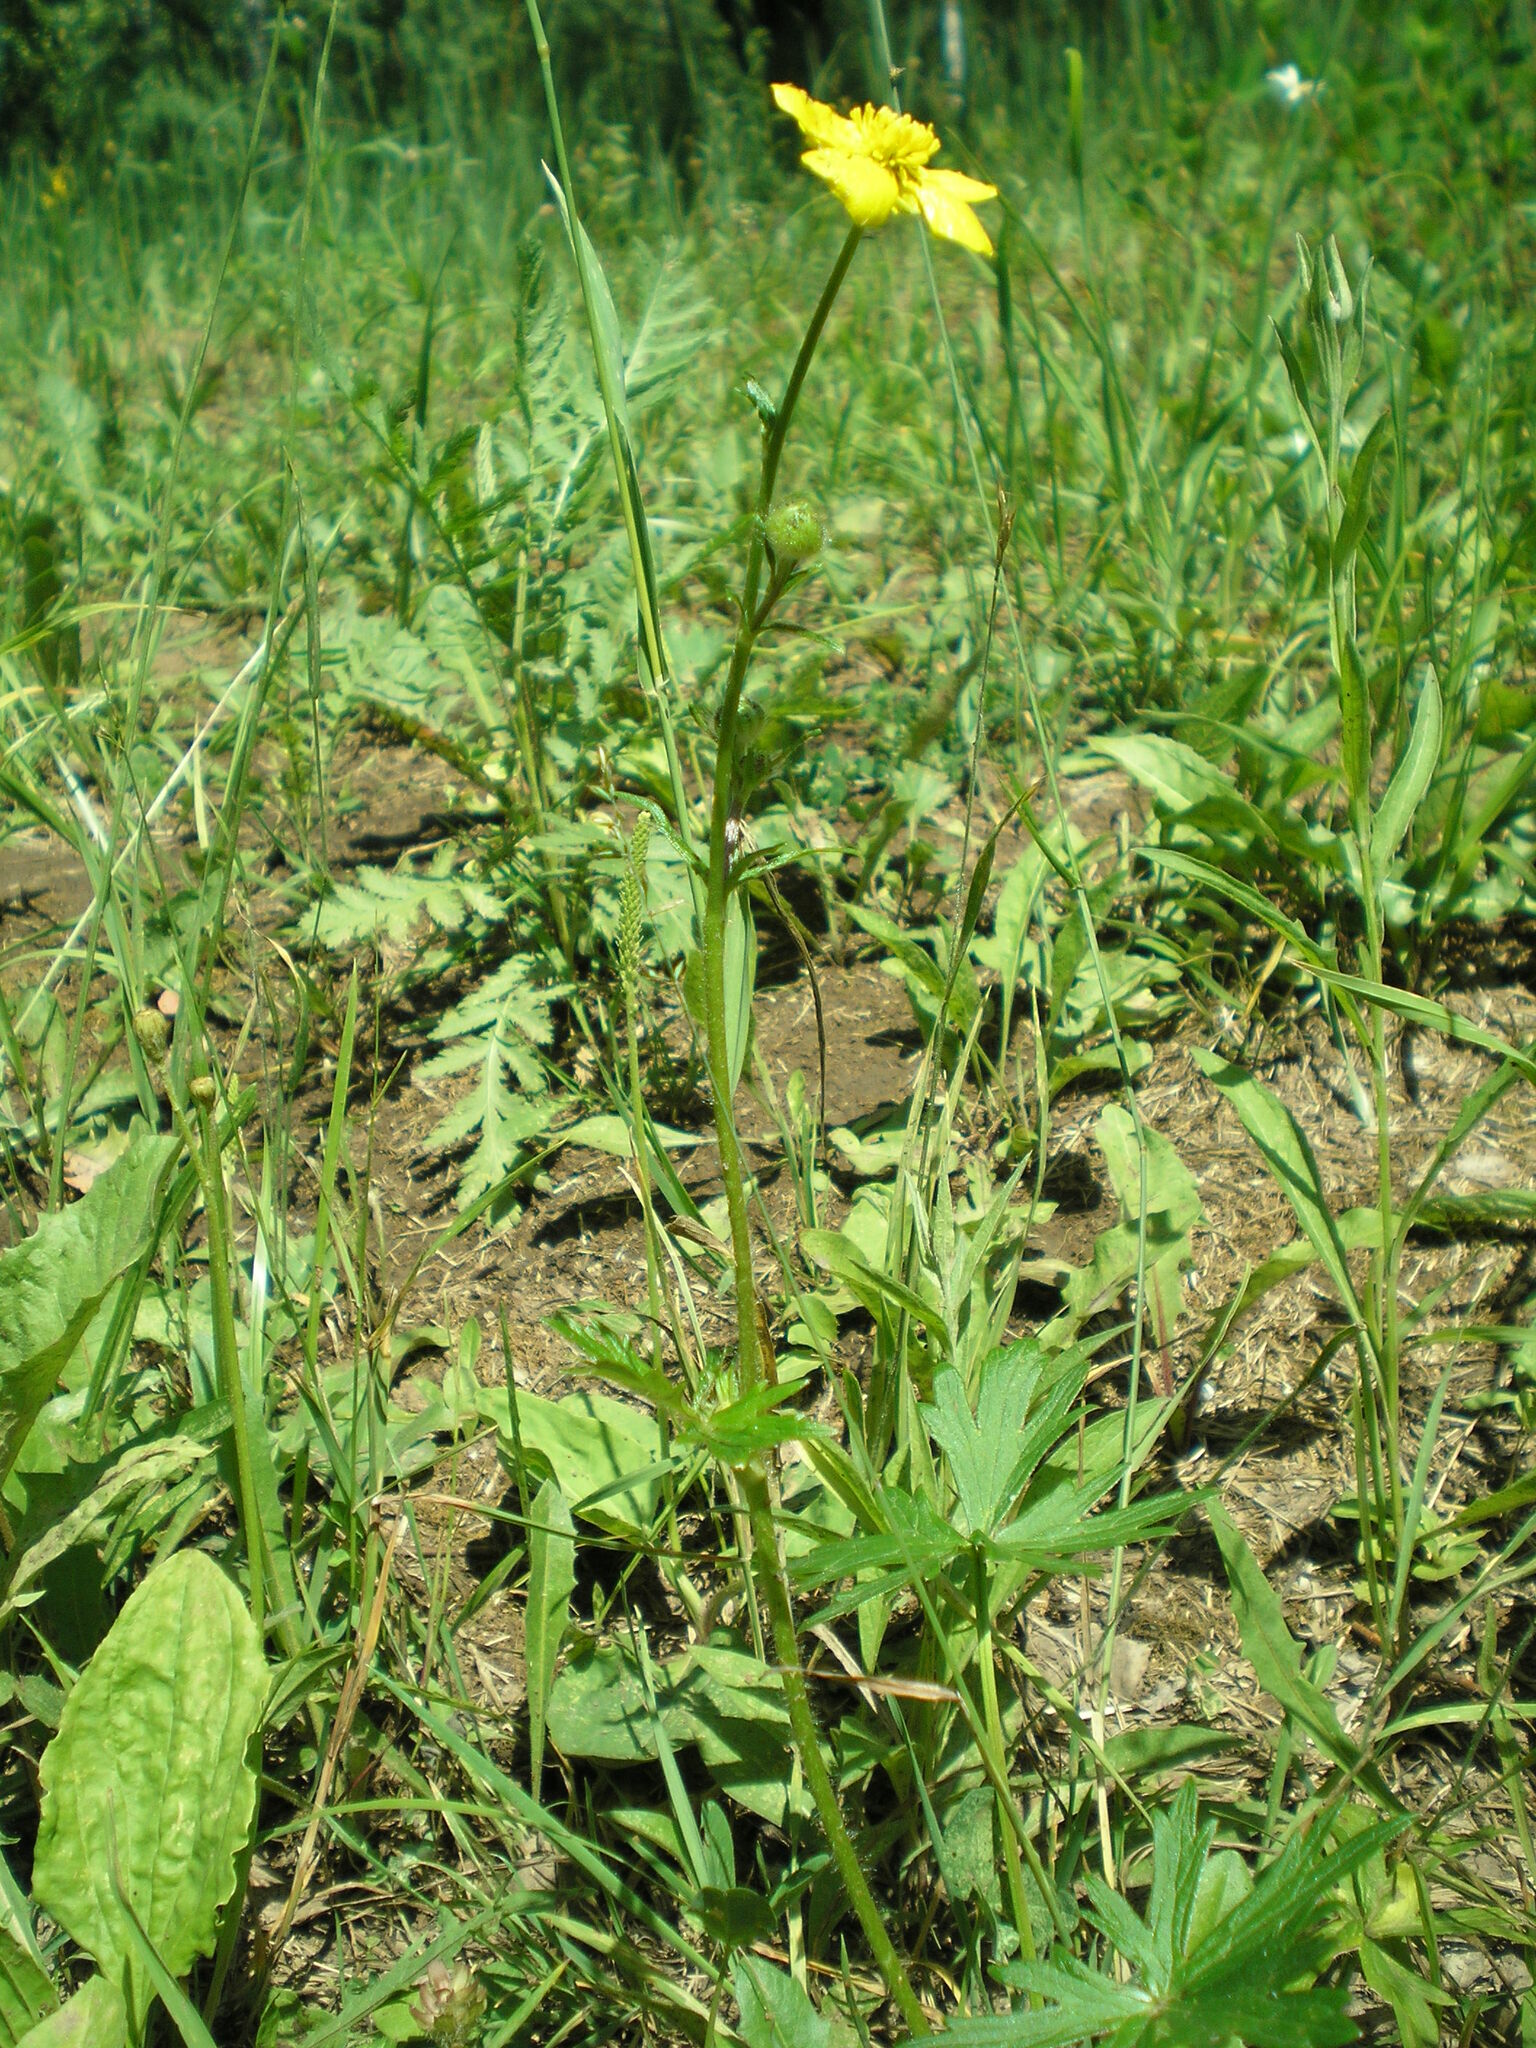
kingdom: Plantae
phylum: Tracheophyta
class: Magnoliopsida
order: Ranunculales
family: Ranunculaceae
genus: Ranunculus
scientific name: Ranunculus polyanthemos
